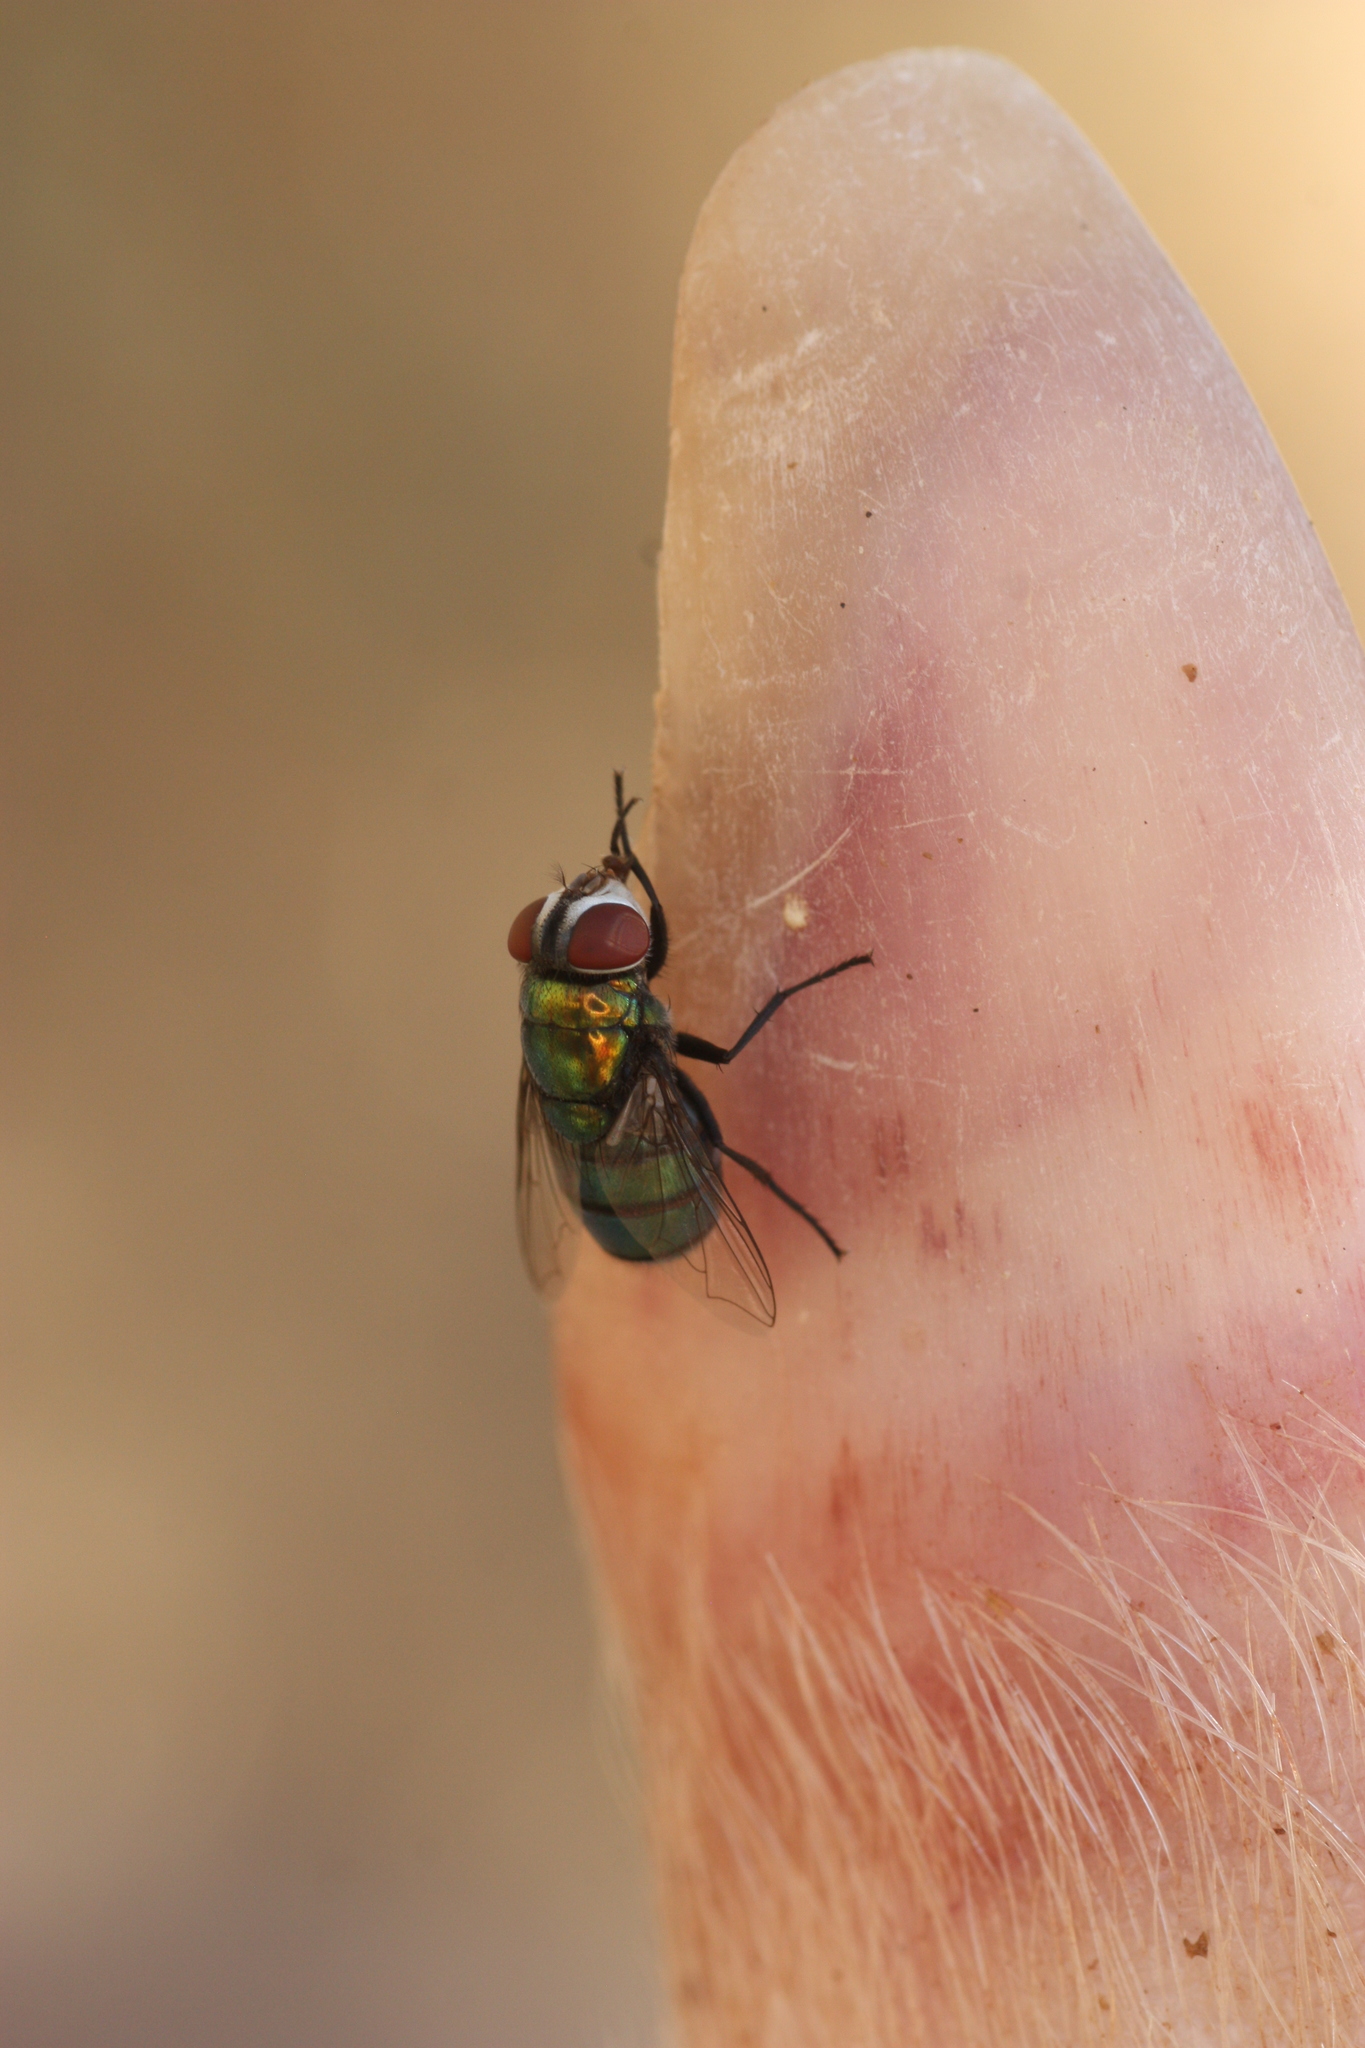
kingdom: Animalia
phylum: Arthropoda
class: Insecta
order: Diptera
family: Calliphoridae
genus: Chrysomya
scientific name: Chrysomya rufifacies
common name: Blow fly
